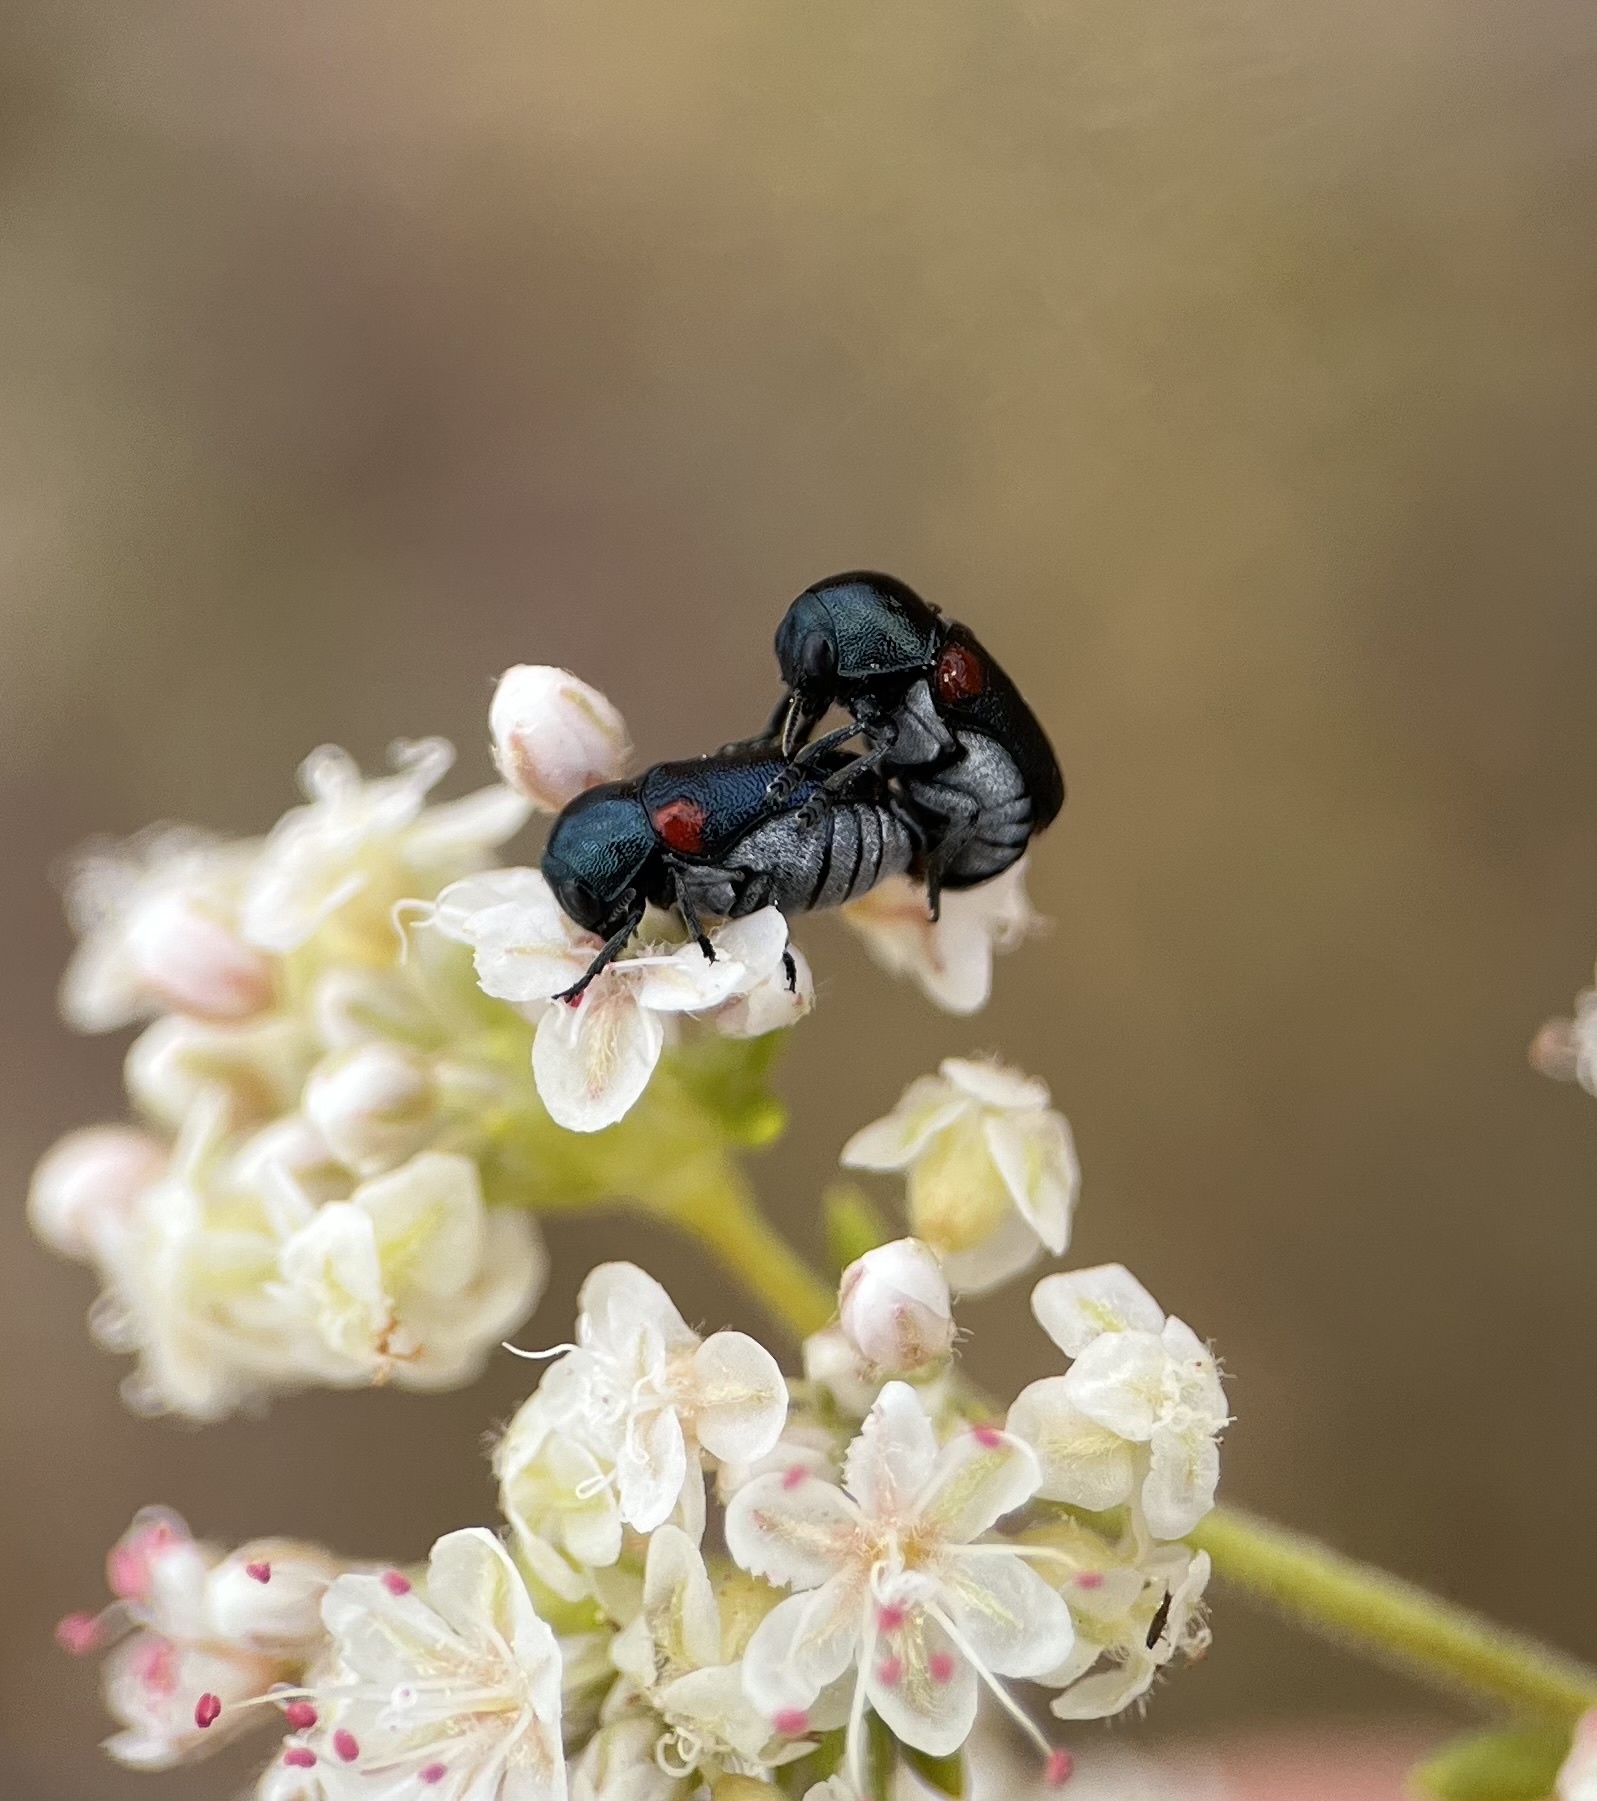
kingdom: Animalia
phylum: Arthropoda
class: Insecta
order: Coleoptera
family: Chrysomelidae
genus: Saxinis
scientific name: Saxinis saucia
